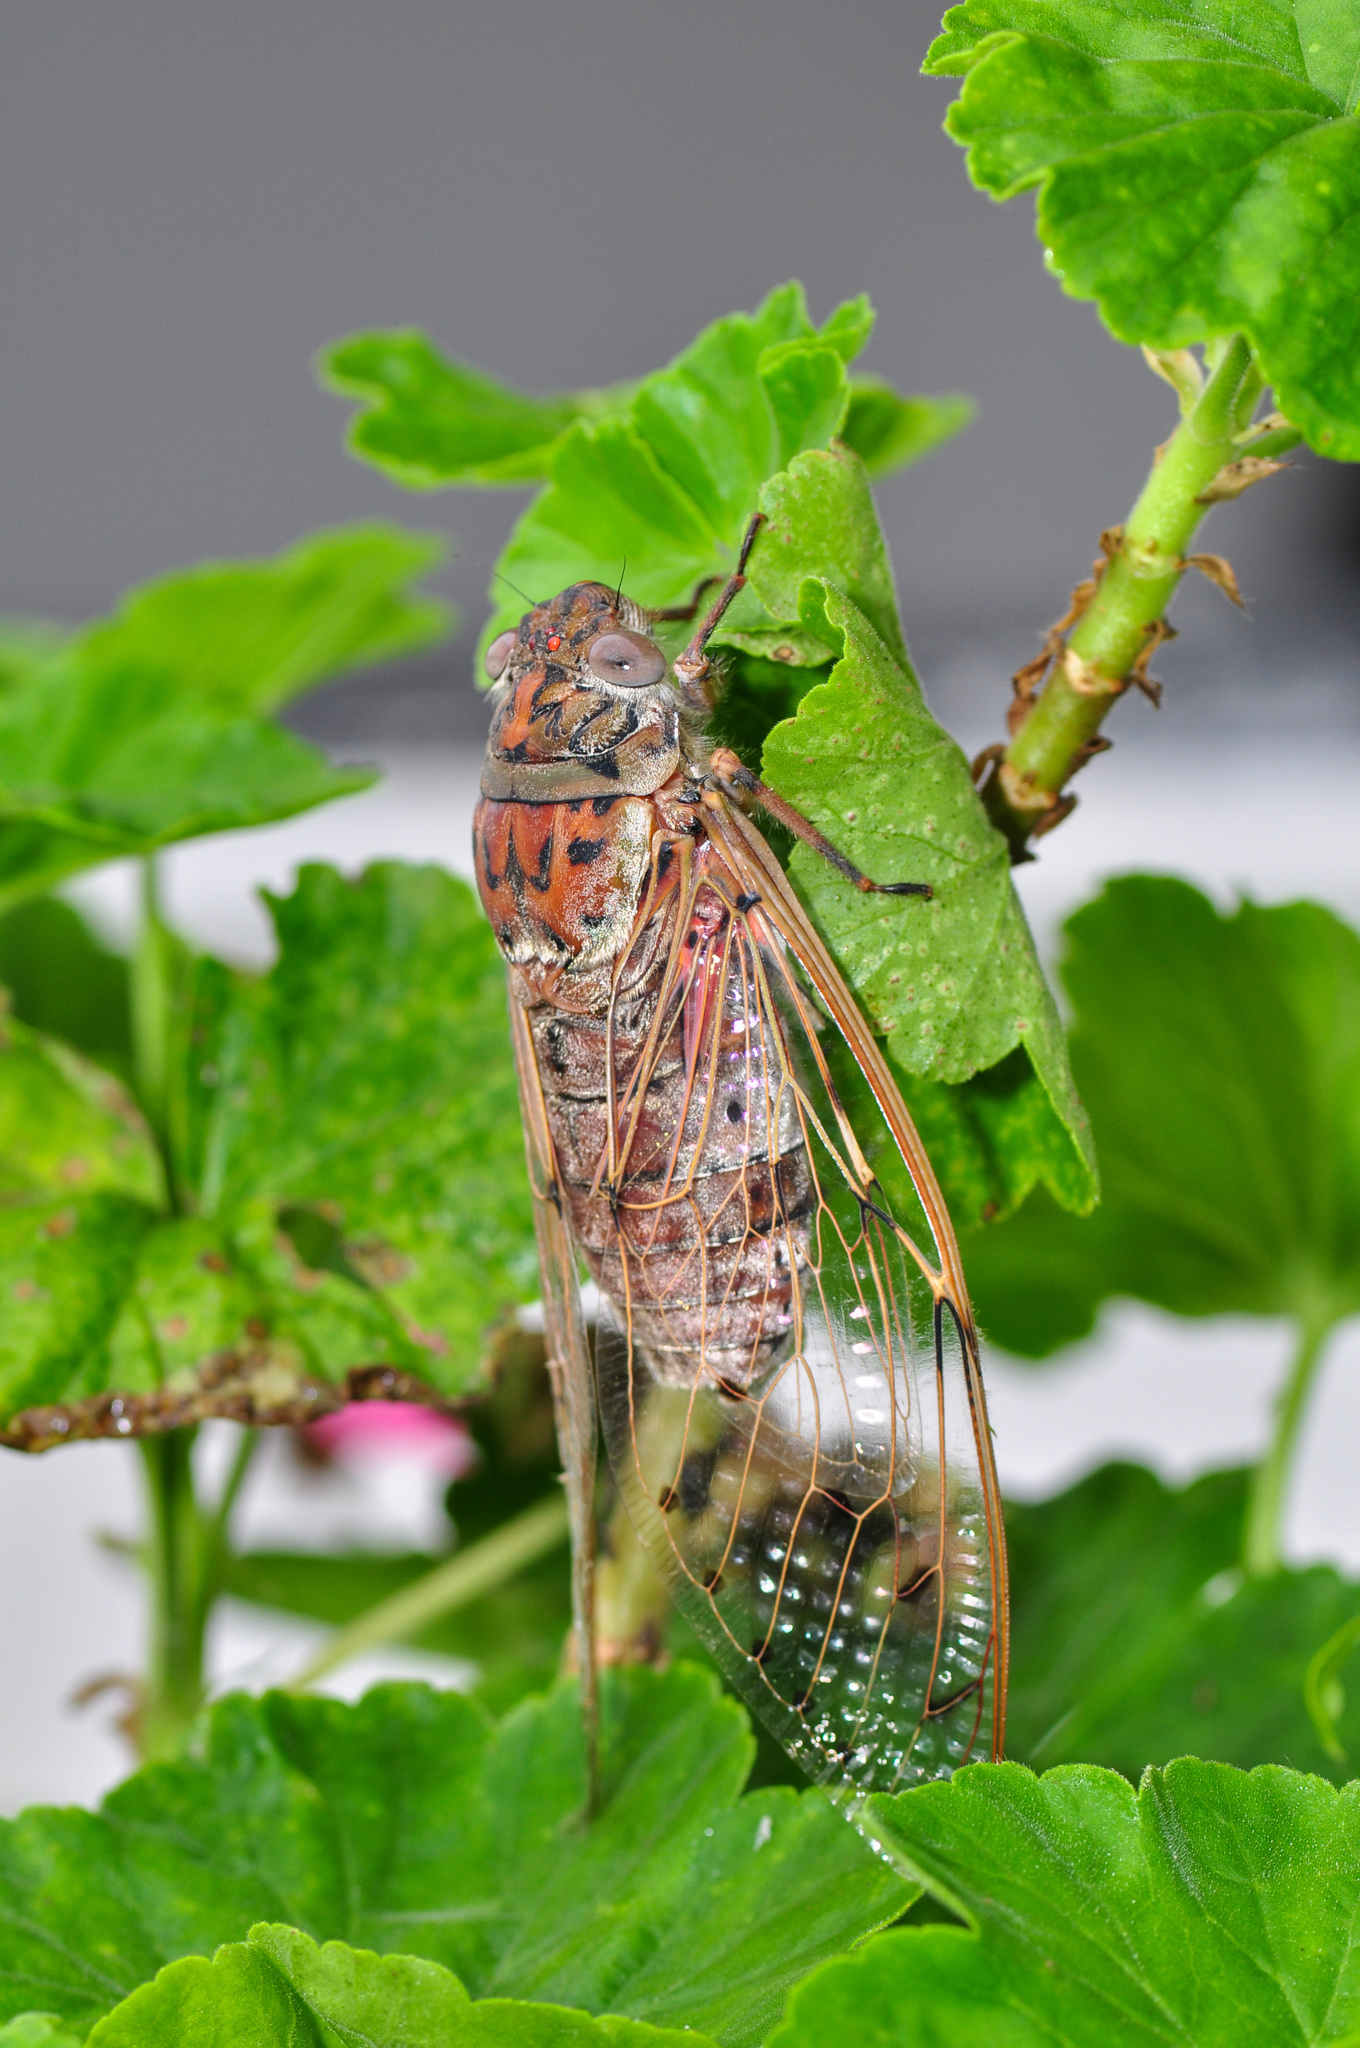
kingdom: Animalia
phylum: Arthropoda
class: Insecta
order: Hemiptera
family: Cicadidae
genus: Megapomponia
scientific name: Megapomponia imperatoria
